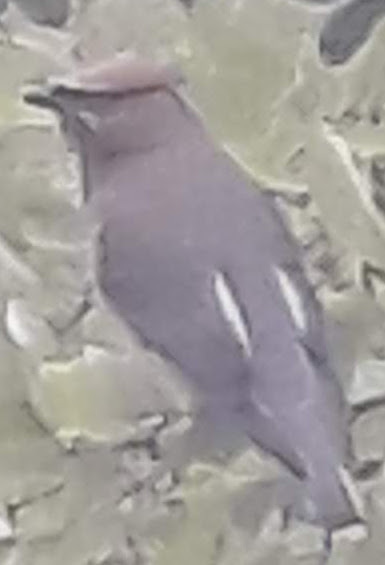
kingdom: Animalia
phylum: Chordata
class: Aves
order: Passeriformes
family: Bombycillidae
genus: Bombycilla
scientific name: Bombycilla cedrorum
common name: Cedar waxwing
